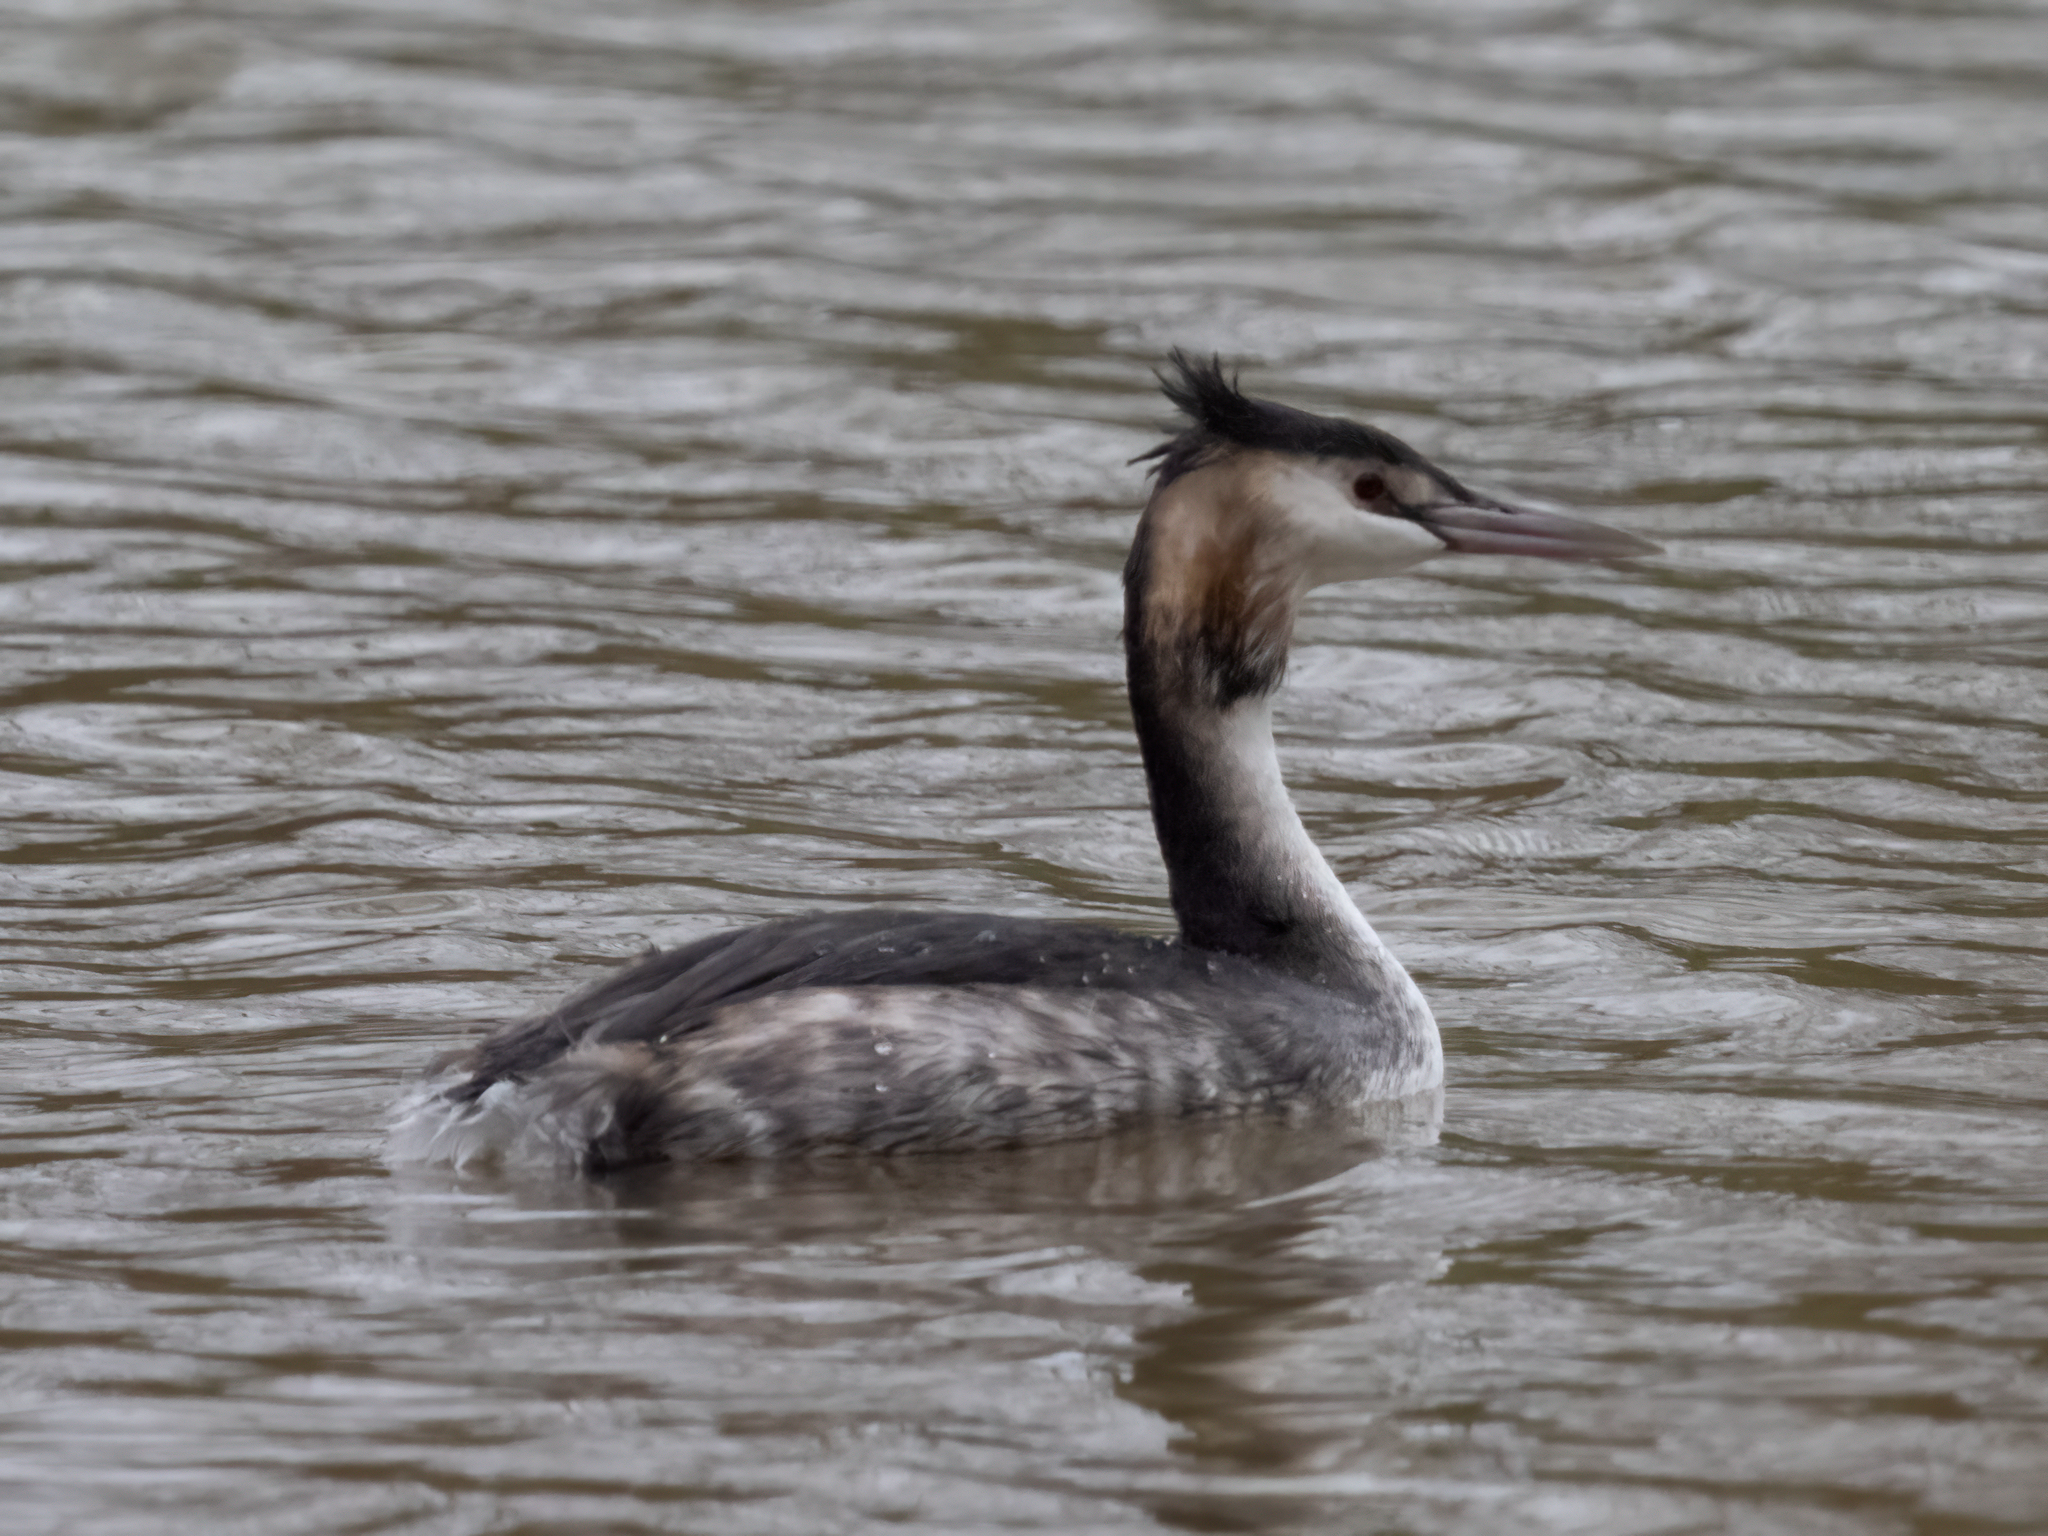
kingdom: Animalia
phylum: Chordata
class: Aves
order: Podicipediformes
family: Podicipedidae
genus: Podiceps
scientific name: Podiceps cristatus
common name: Great crested grebe
